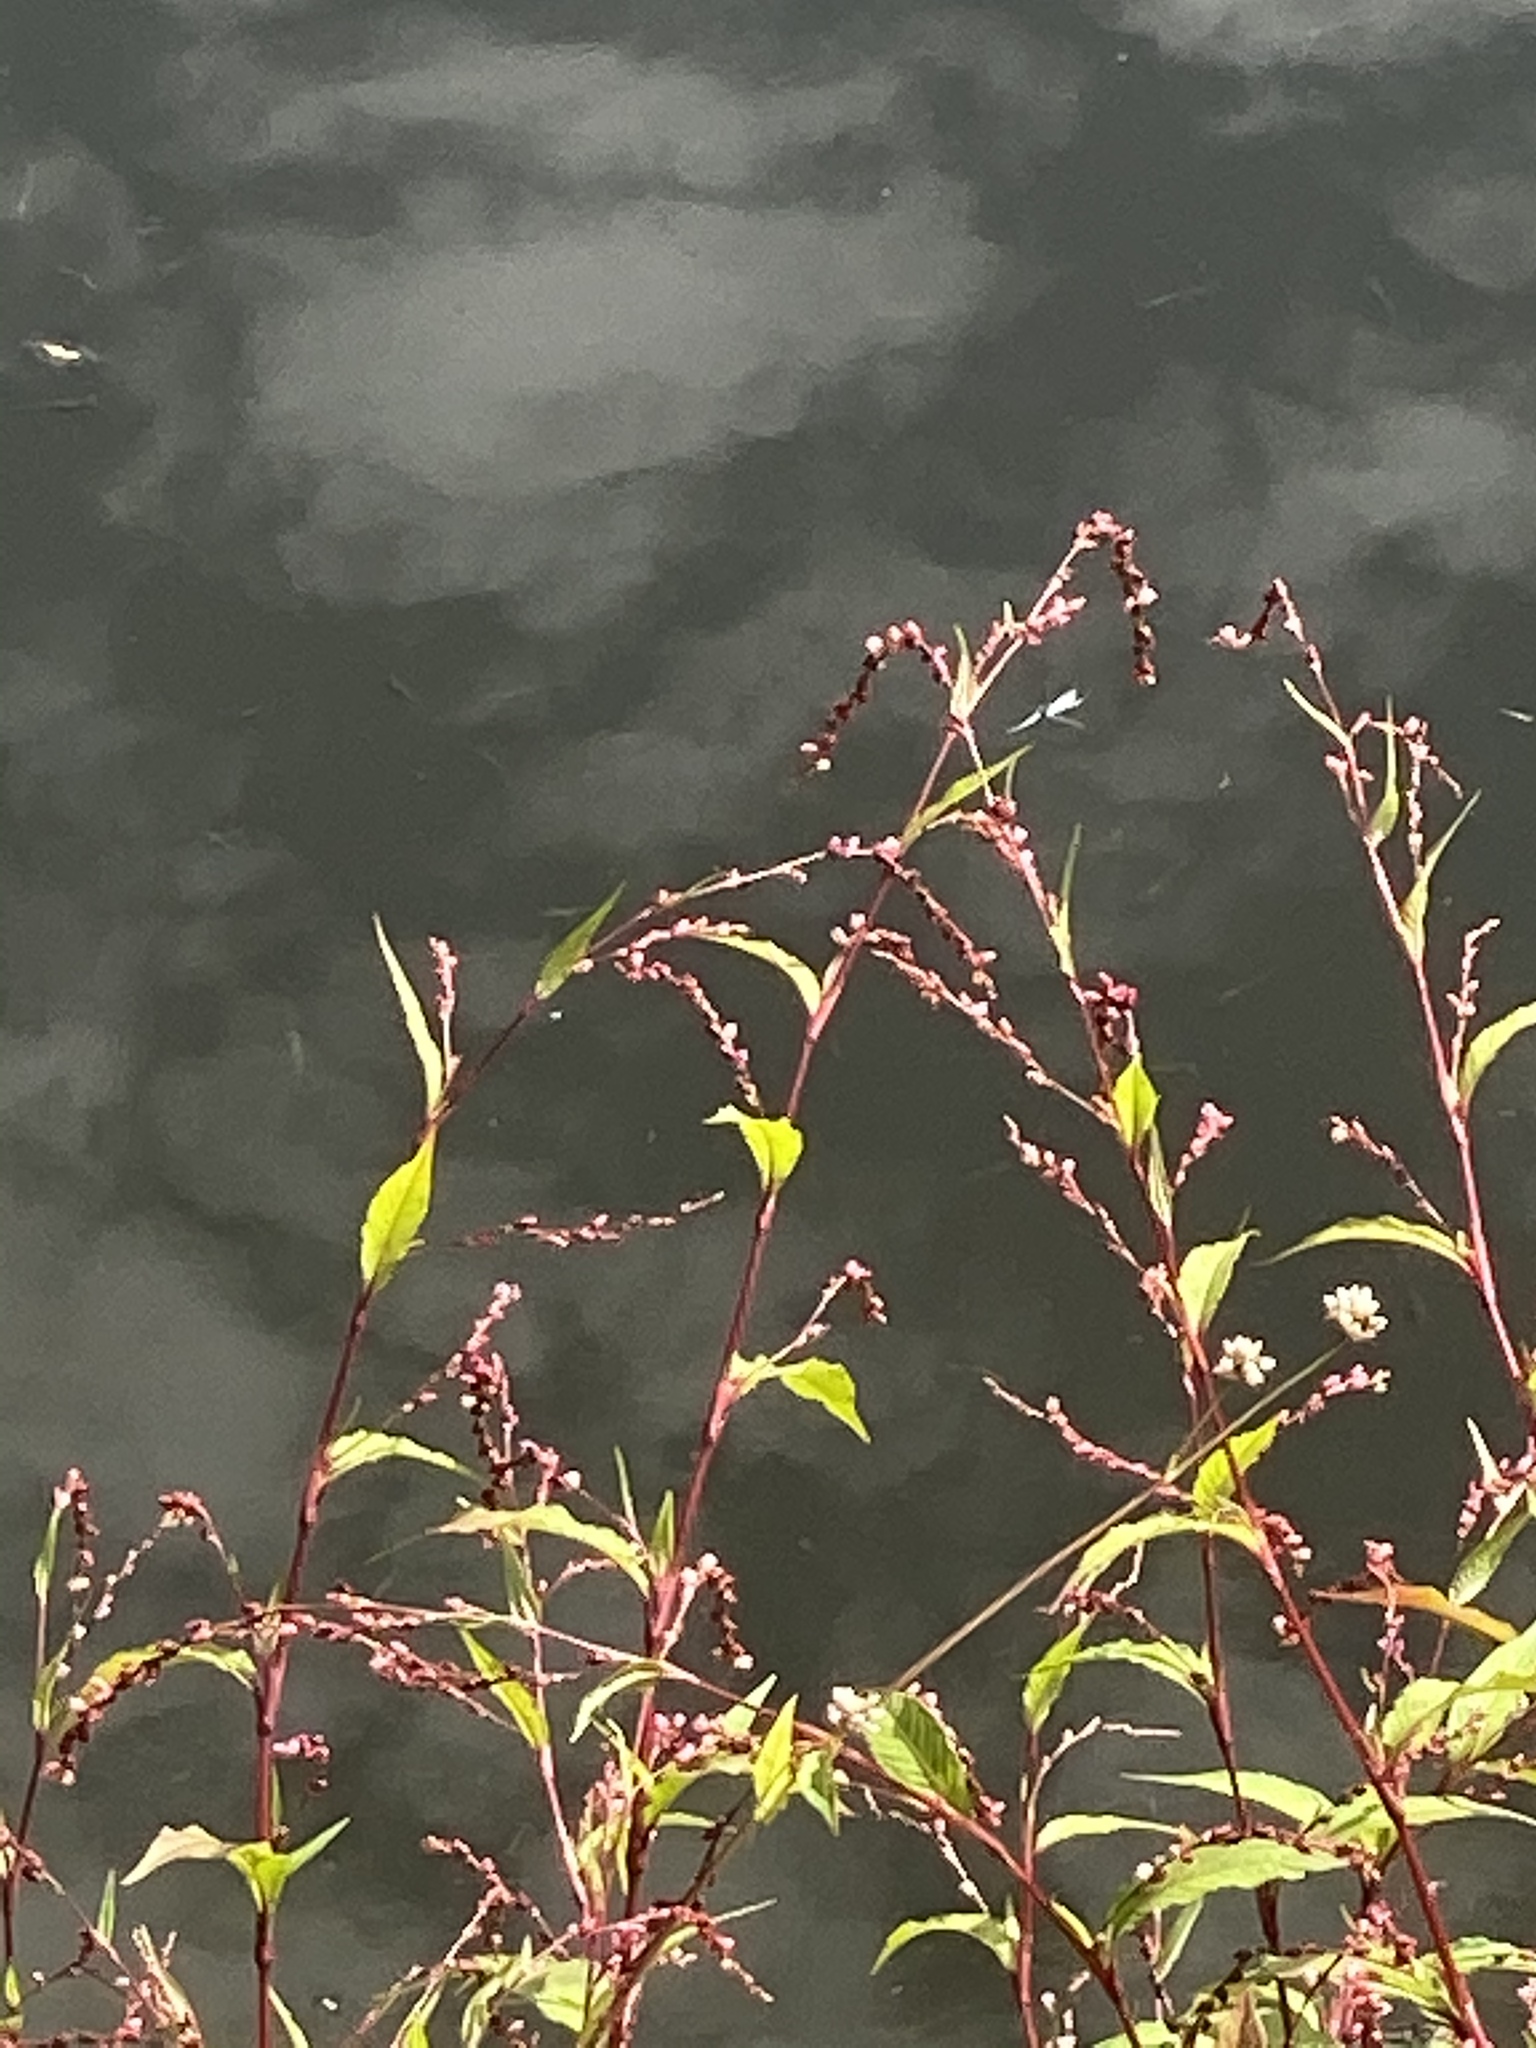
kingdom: Plantae
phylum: Tracheophyta
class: Magnoliopsida
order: Caryophyllales
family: Polygonaceae
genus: Persicaria
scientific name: Persicaria hydropiper
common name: Water-pepper
